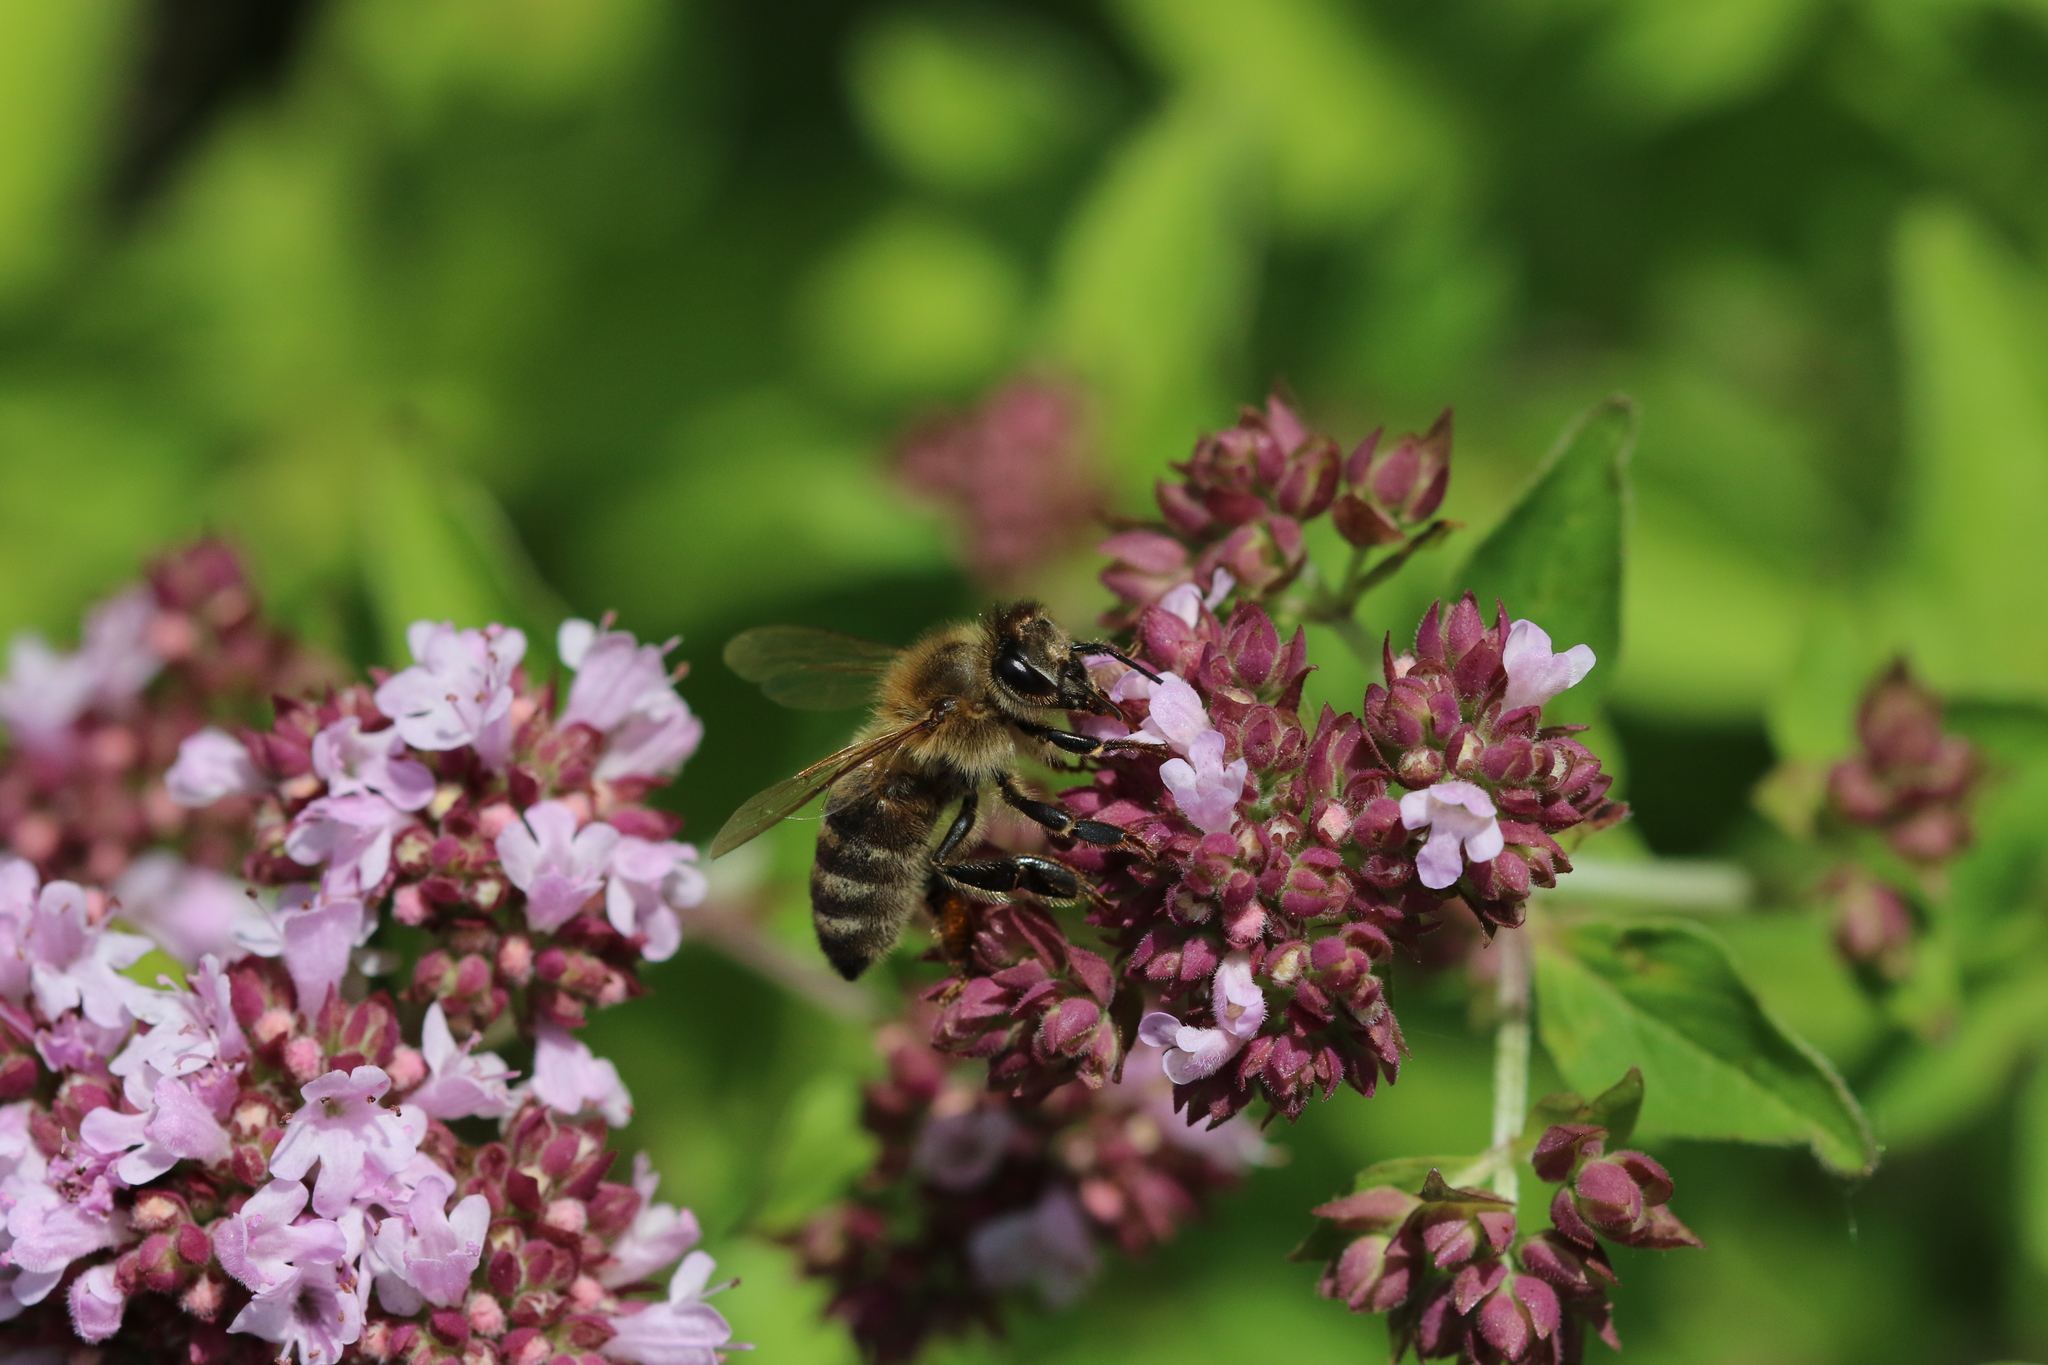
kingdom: Animalia
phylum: Arthropoda
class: Insecta
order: Hymenoptera
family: Apidae
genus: Apis
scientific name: Apis mellifera
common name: Honey bee
